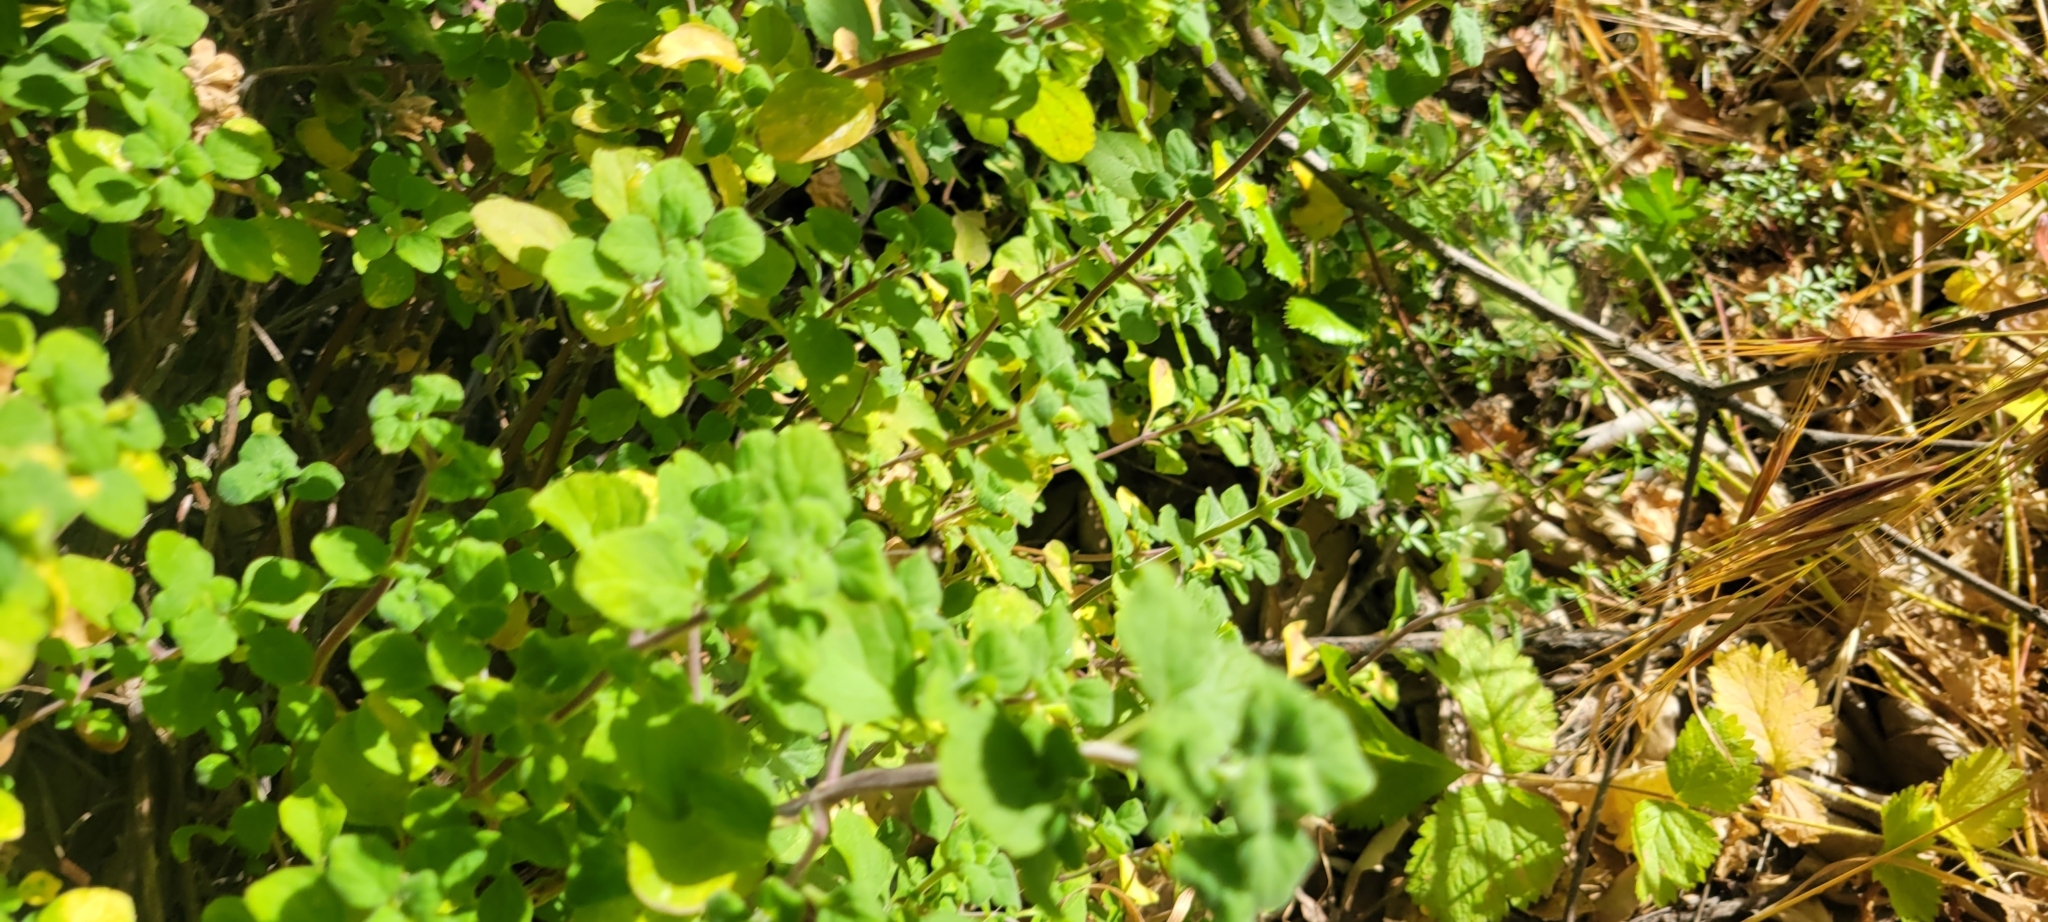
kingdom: Plantae
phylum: Tracheophyta
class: Magnoliopsida
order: Lamiales
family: Lamiaceae
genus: Clinopodium
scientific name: Clinopodium chandleri
